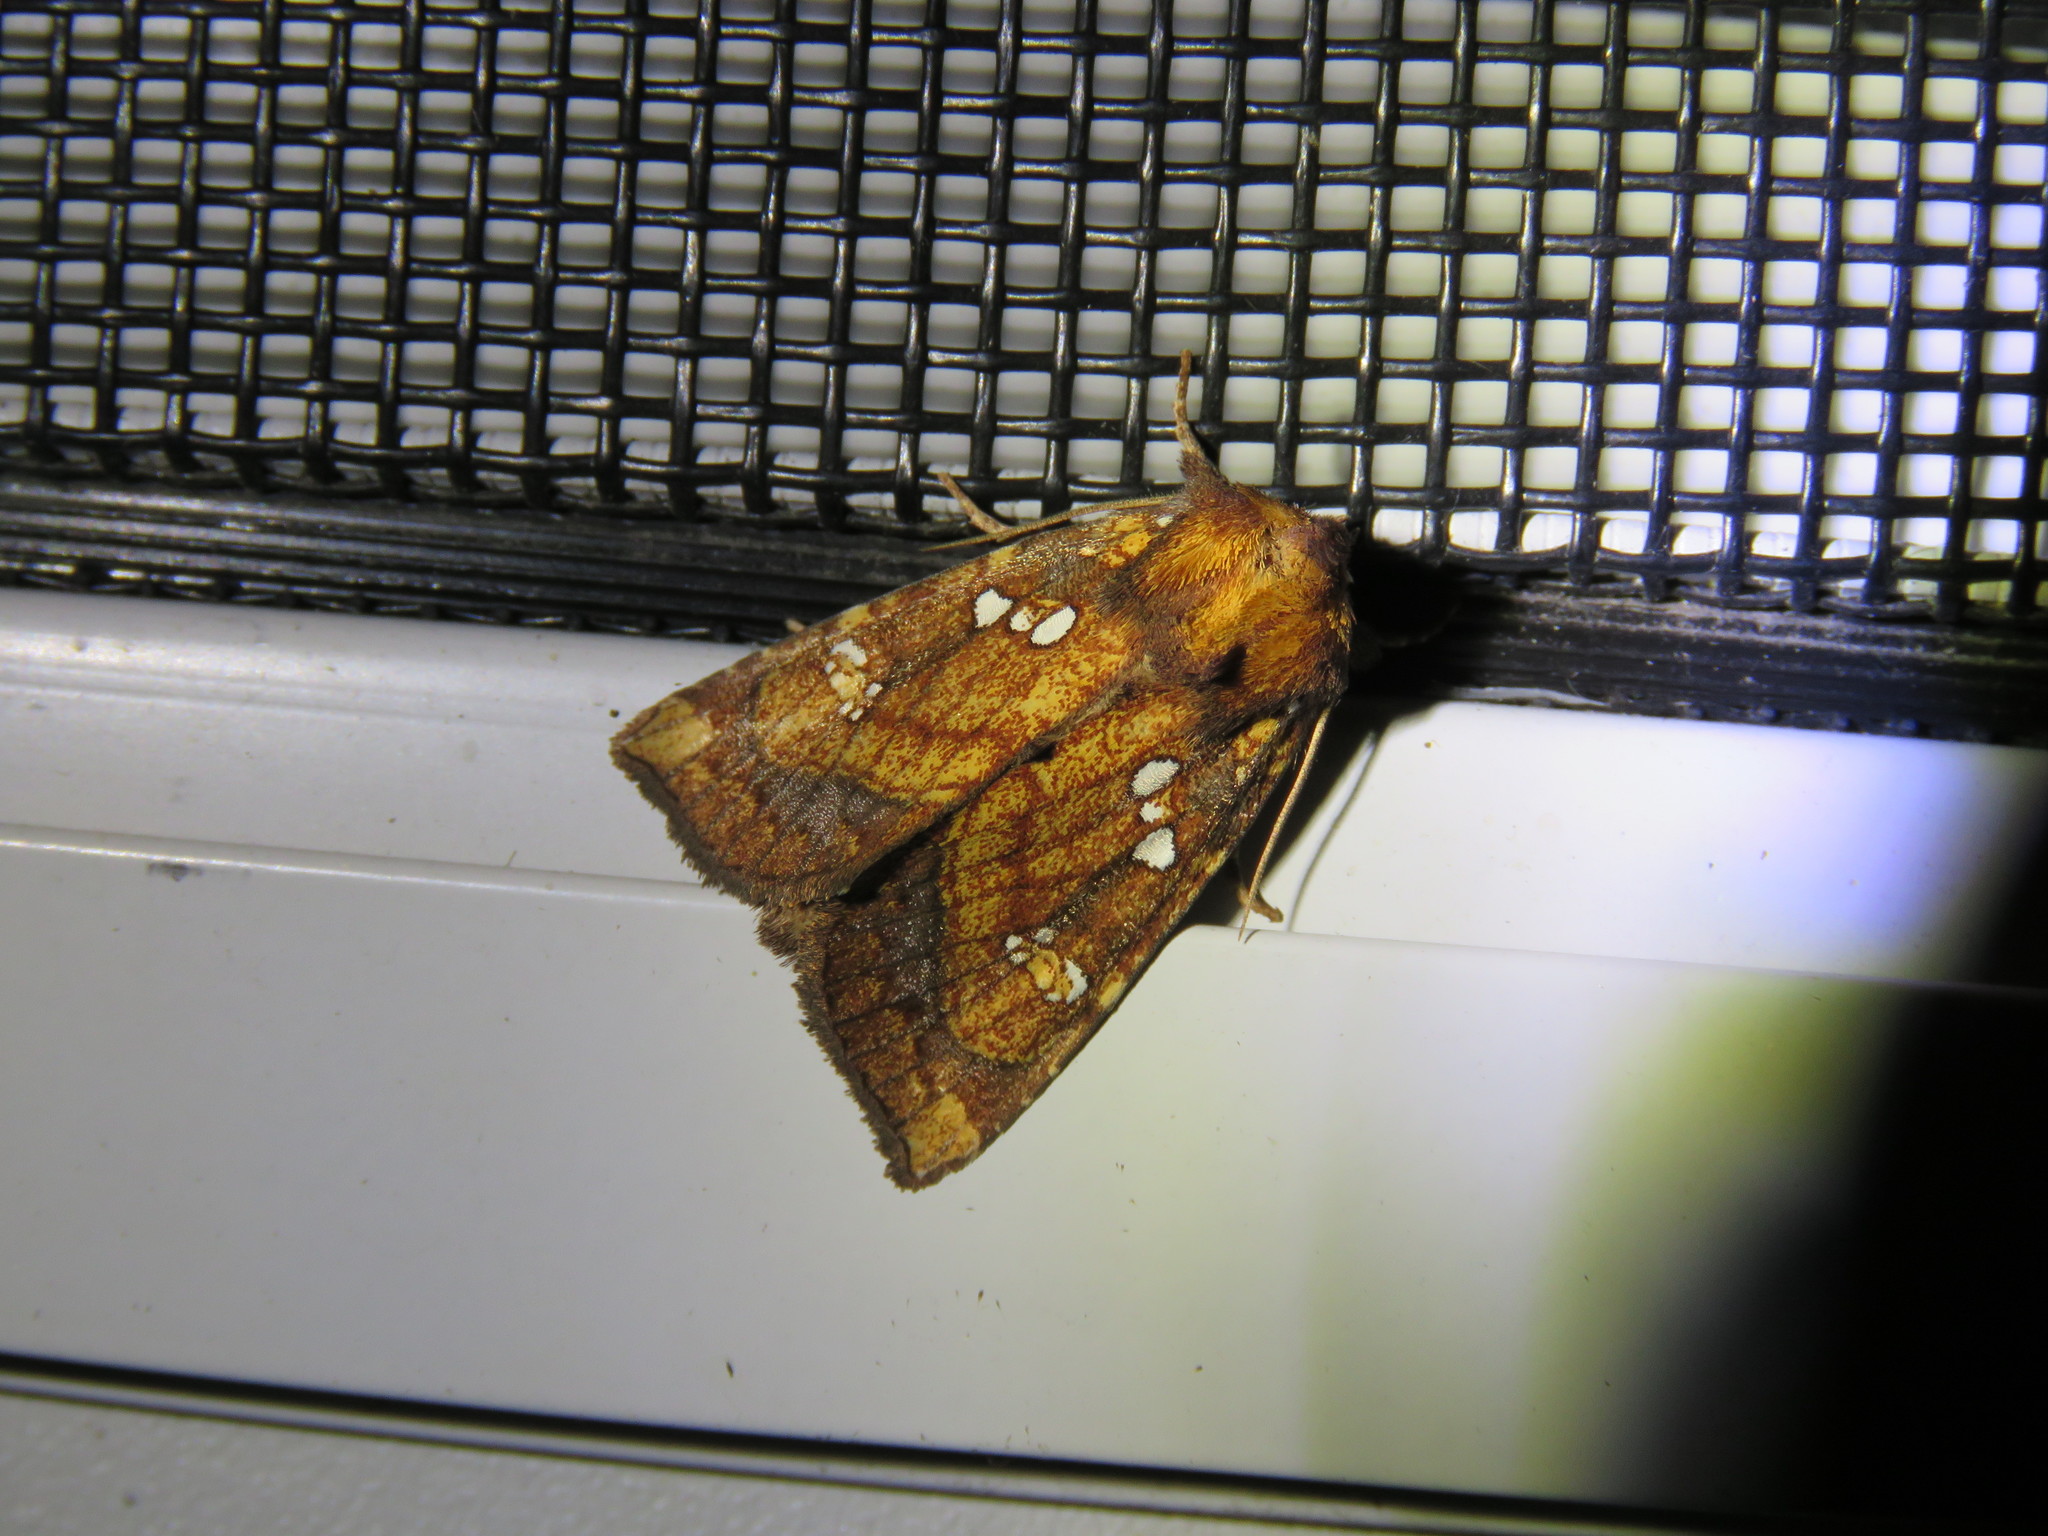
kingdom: Animalia
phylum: Arthropoda
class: Insecta
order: Lepidoptera
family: Noctuidae
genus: Papaipema
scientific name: Papaipema arctivorens
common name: Northern burdock borer moth
